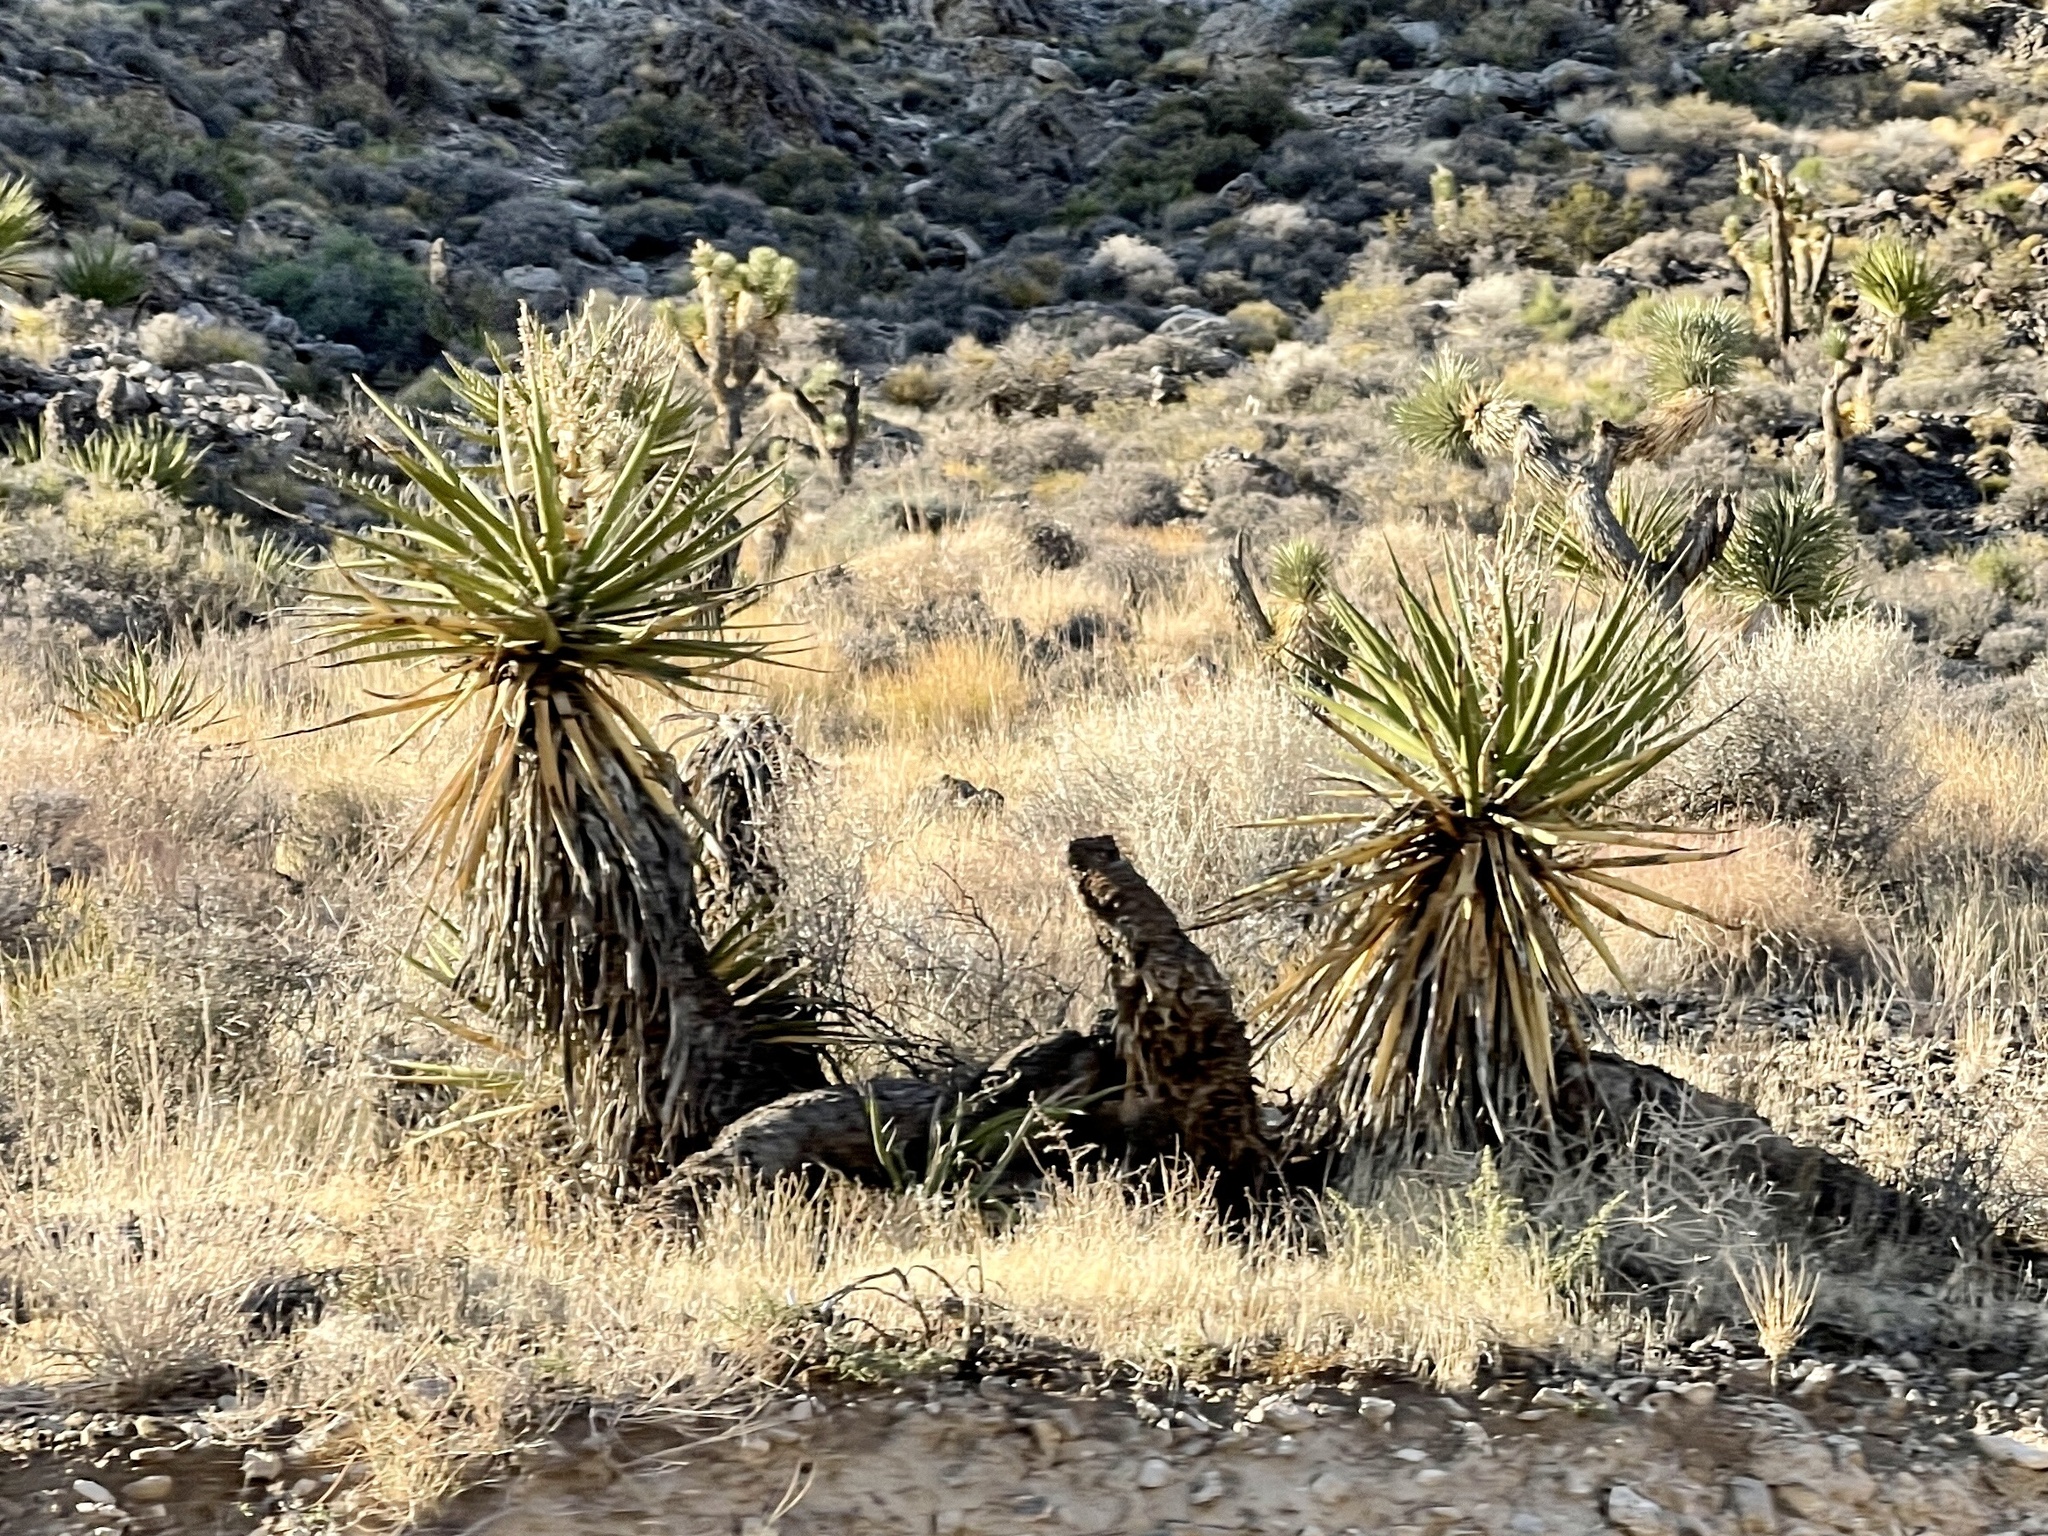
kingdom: Plantae
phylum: Tracheophyta
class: Liliopsida
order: Asparagales
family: Asparagaceae
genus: Yucca
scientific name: Yucca schidigera
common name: Mojave yucca
